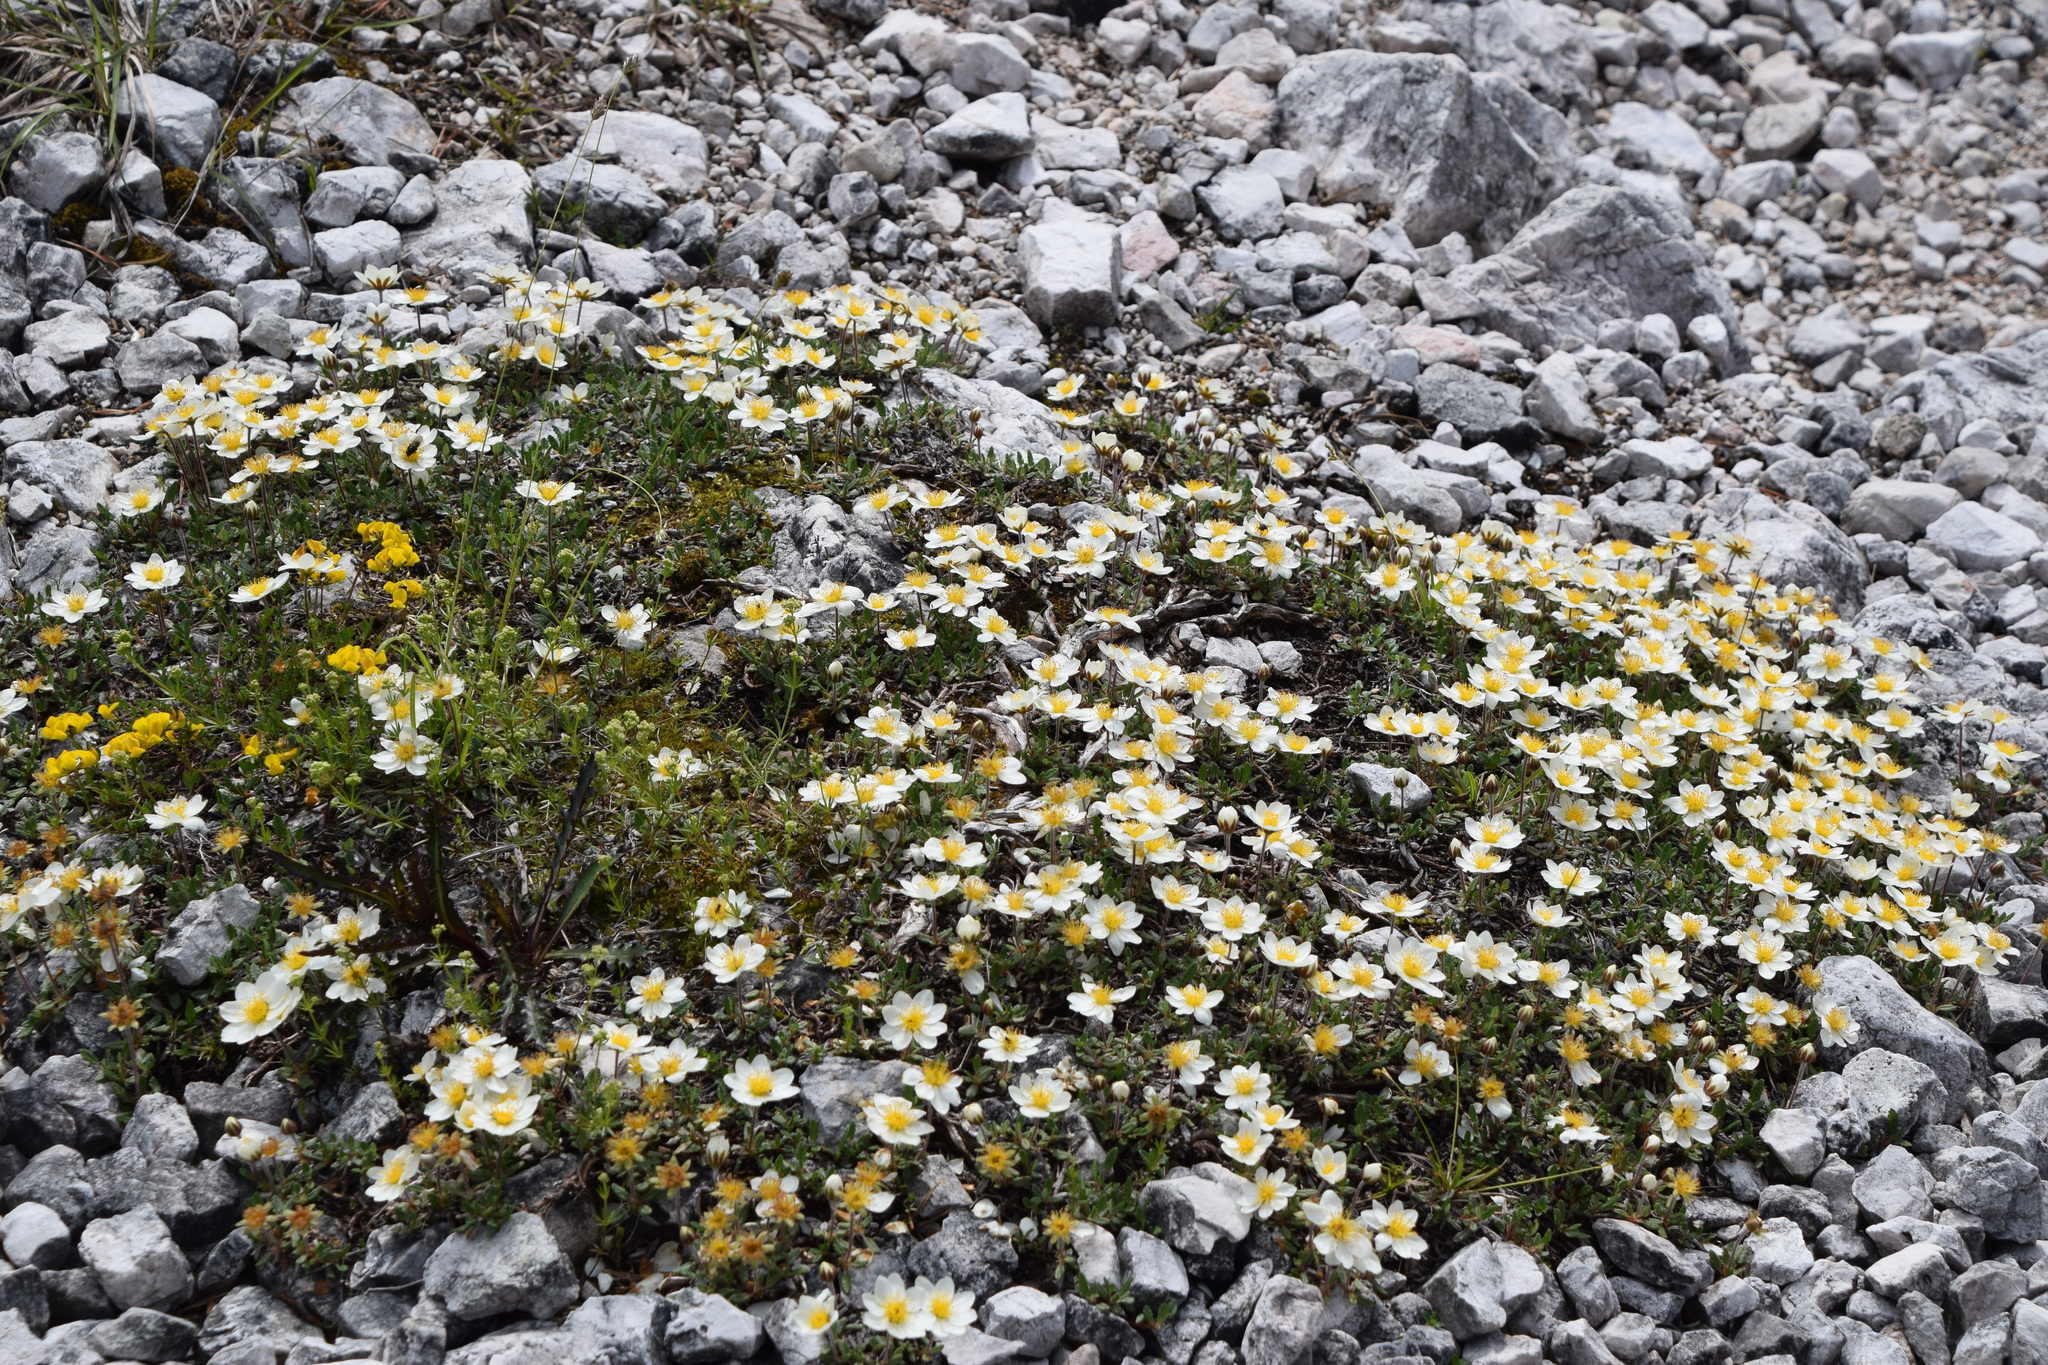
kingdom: Plantae
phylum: Tracheophyta
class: Magnoliopsida
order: Rosales
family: Rosaceae
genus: Dryas
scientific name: Dryas octopetala
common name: Eight-petal mountain-avens
